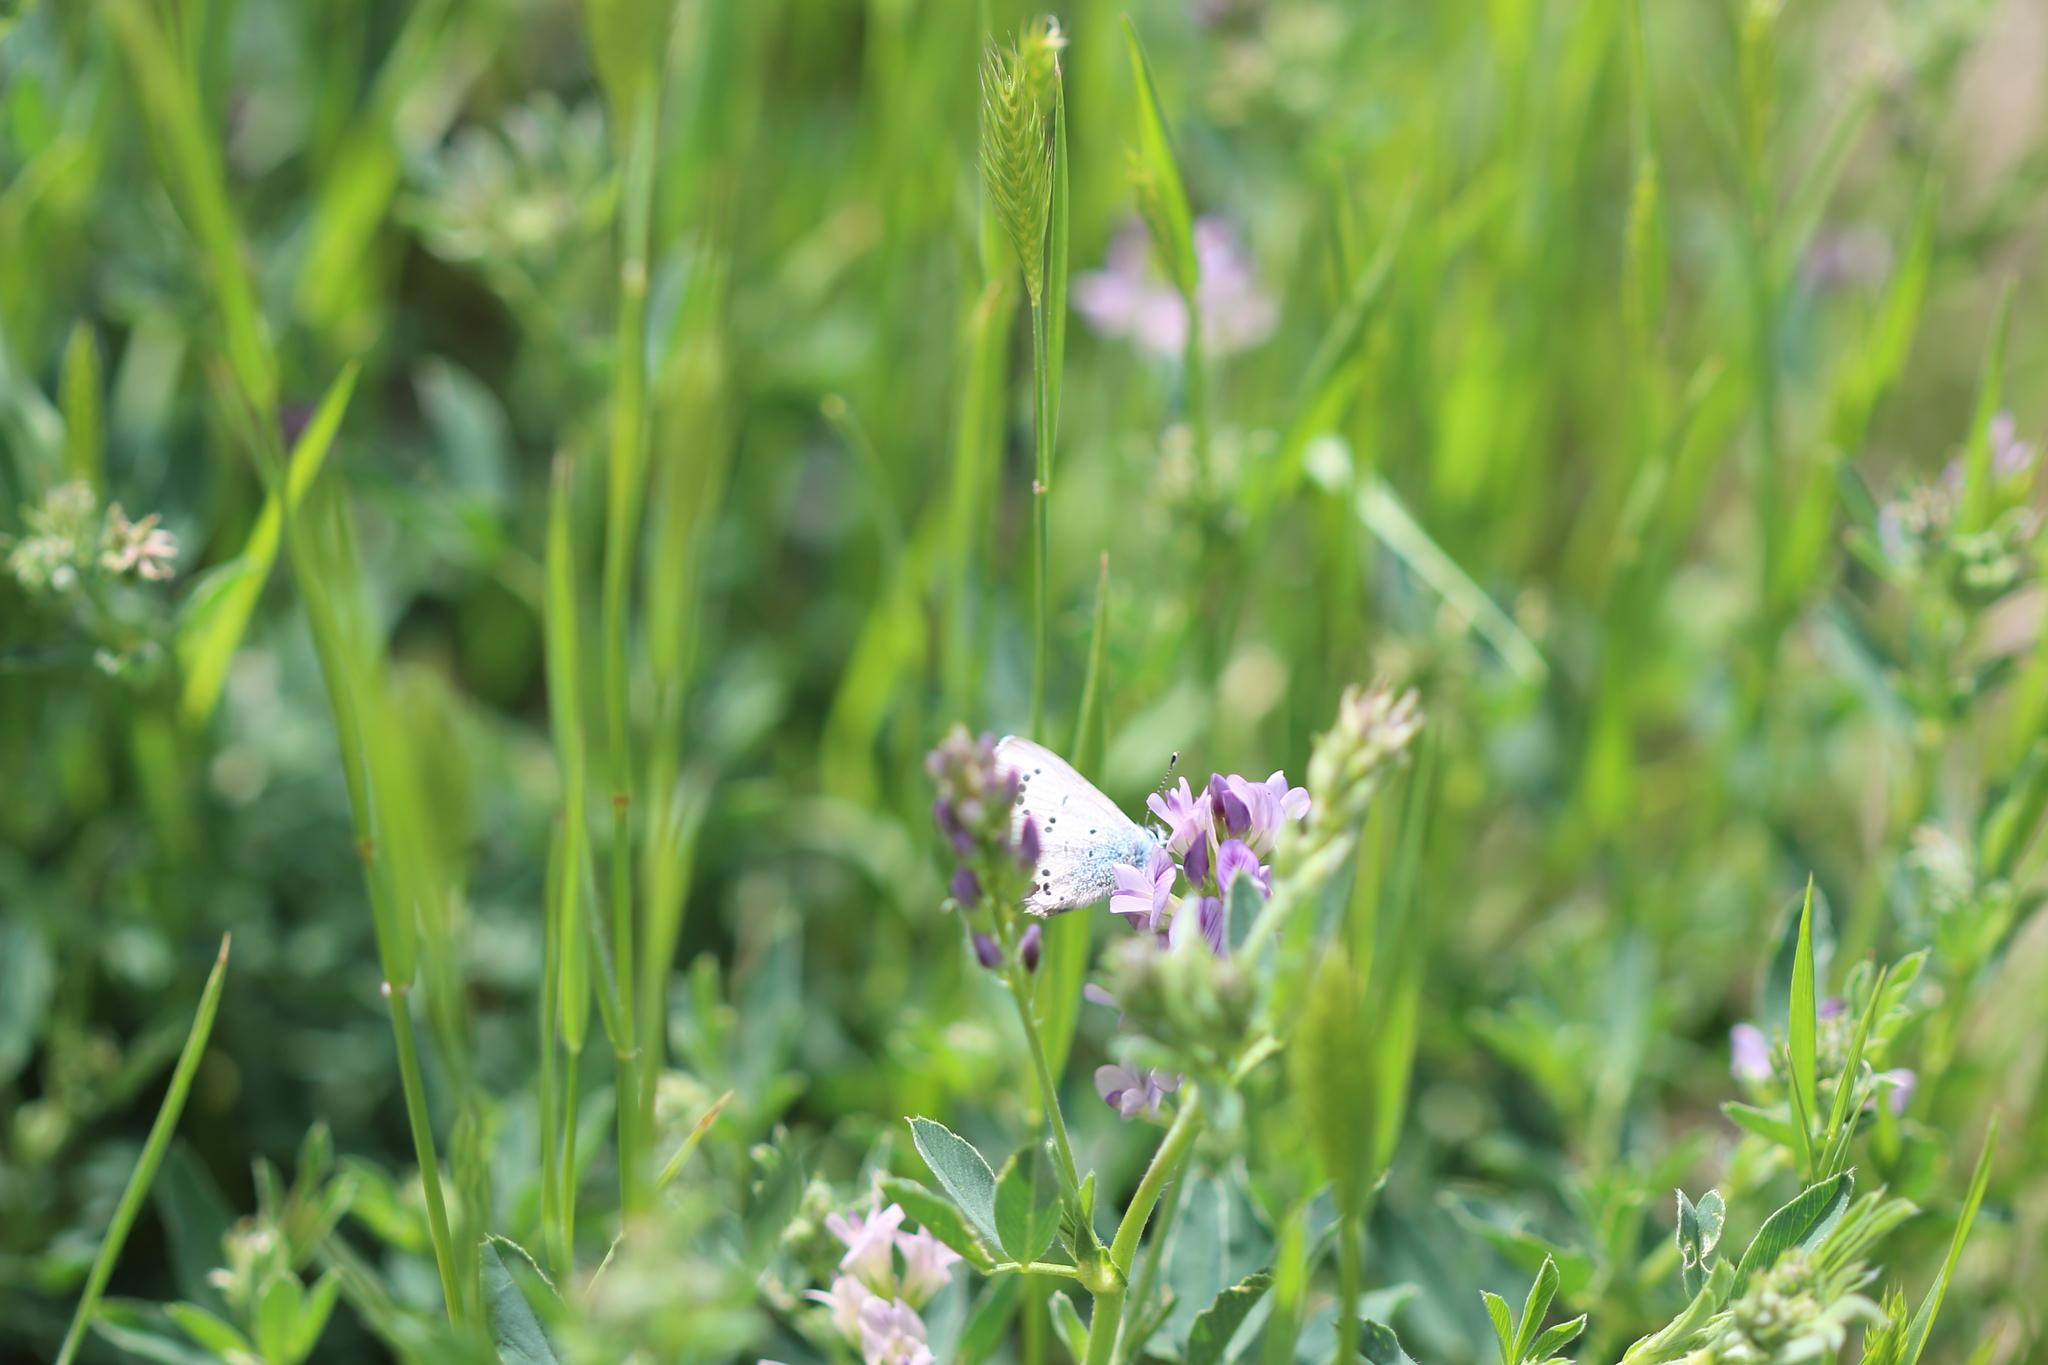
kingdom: Animalia
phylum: Arthropoda
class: Insecta
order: Lepidoptera
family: Lycaenidae
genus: Glaucopsyche
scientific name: Glaucopsyche lygdamus
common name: Silvery blue
